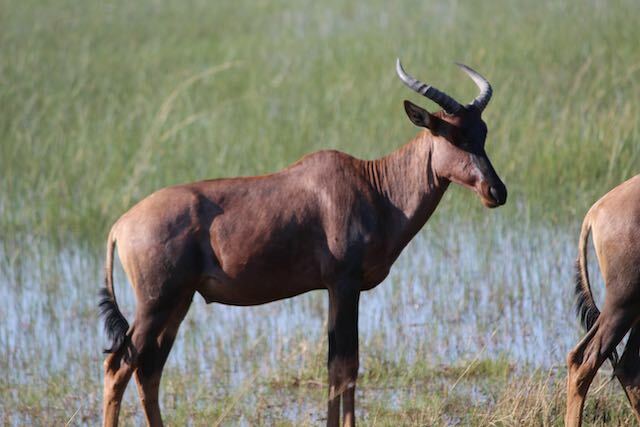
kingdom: Animalia
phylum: Chordata
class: Mammalia
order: Artiodactyla
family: Bovidae
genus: Damaliscus
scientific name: Damaliscus lunatus
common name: Common tsessebe
